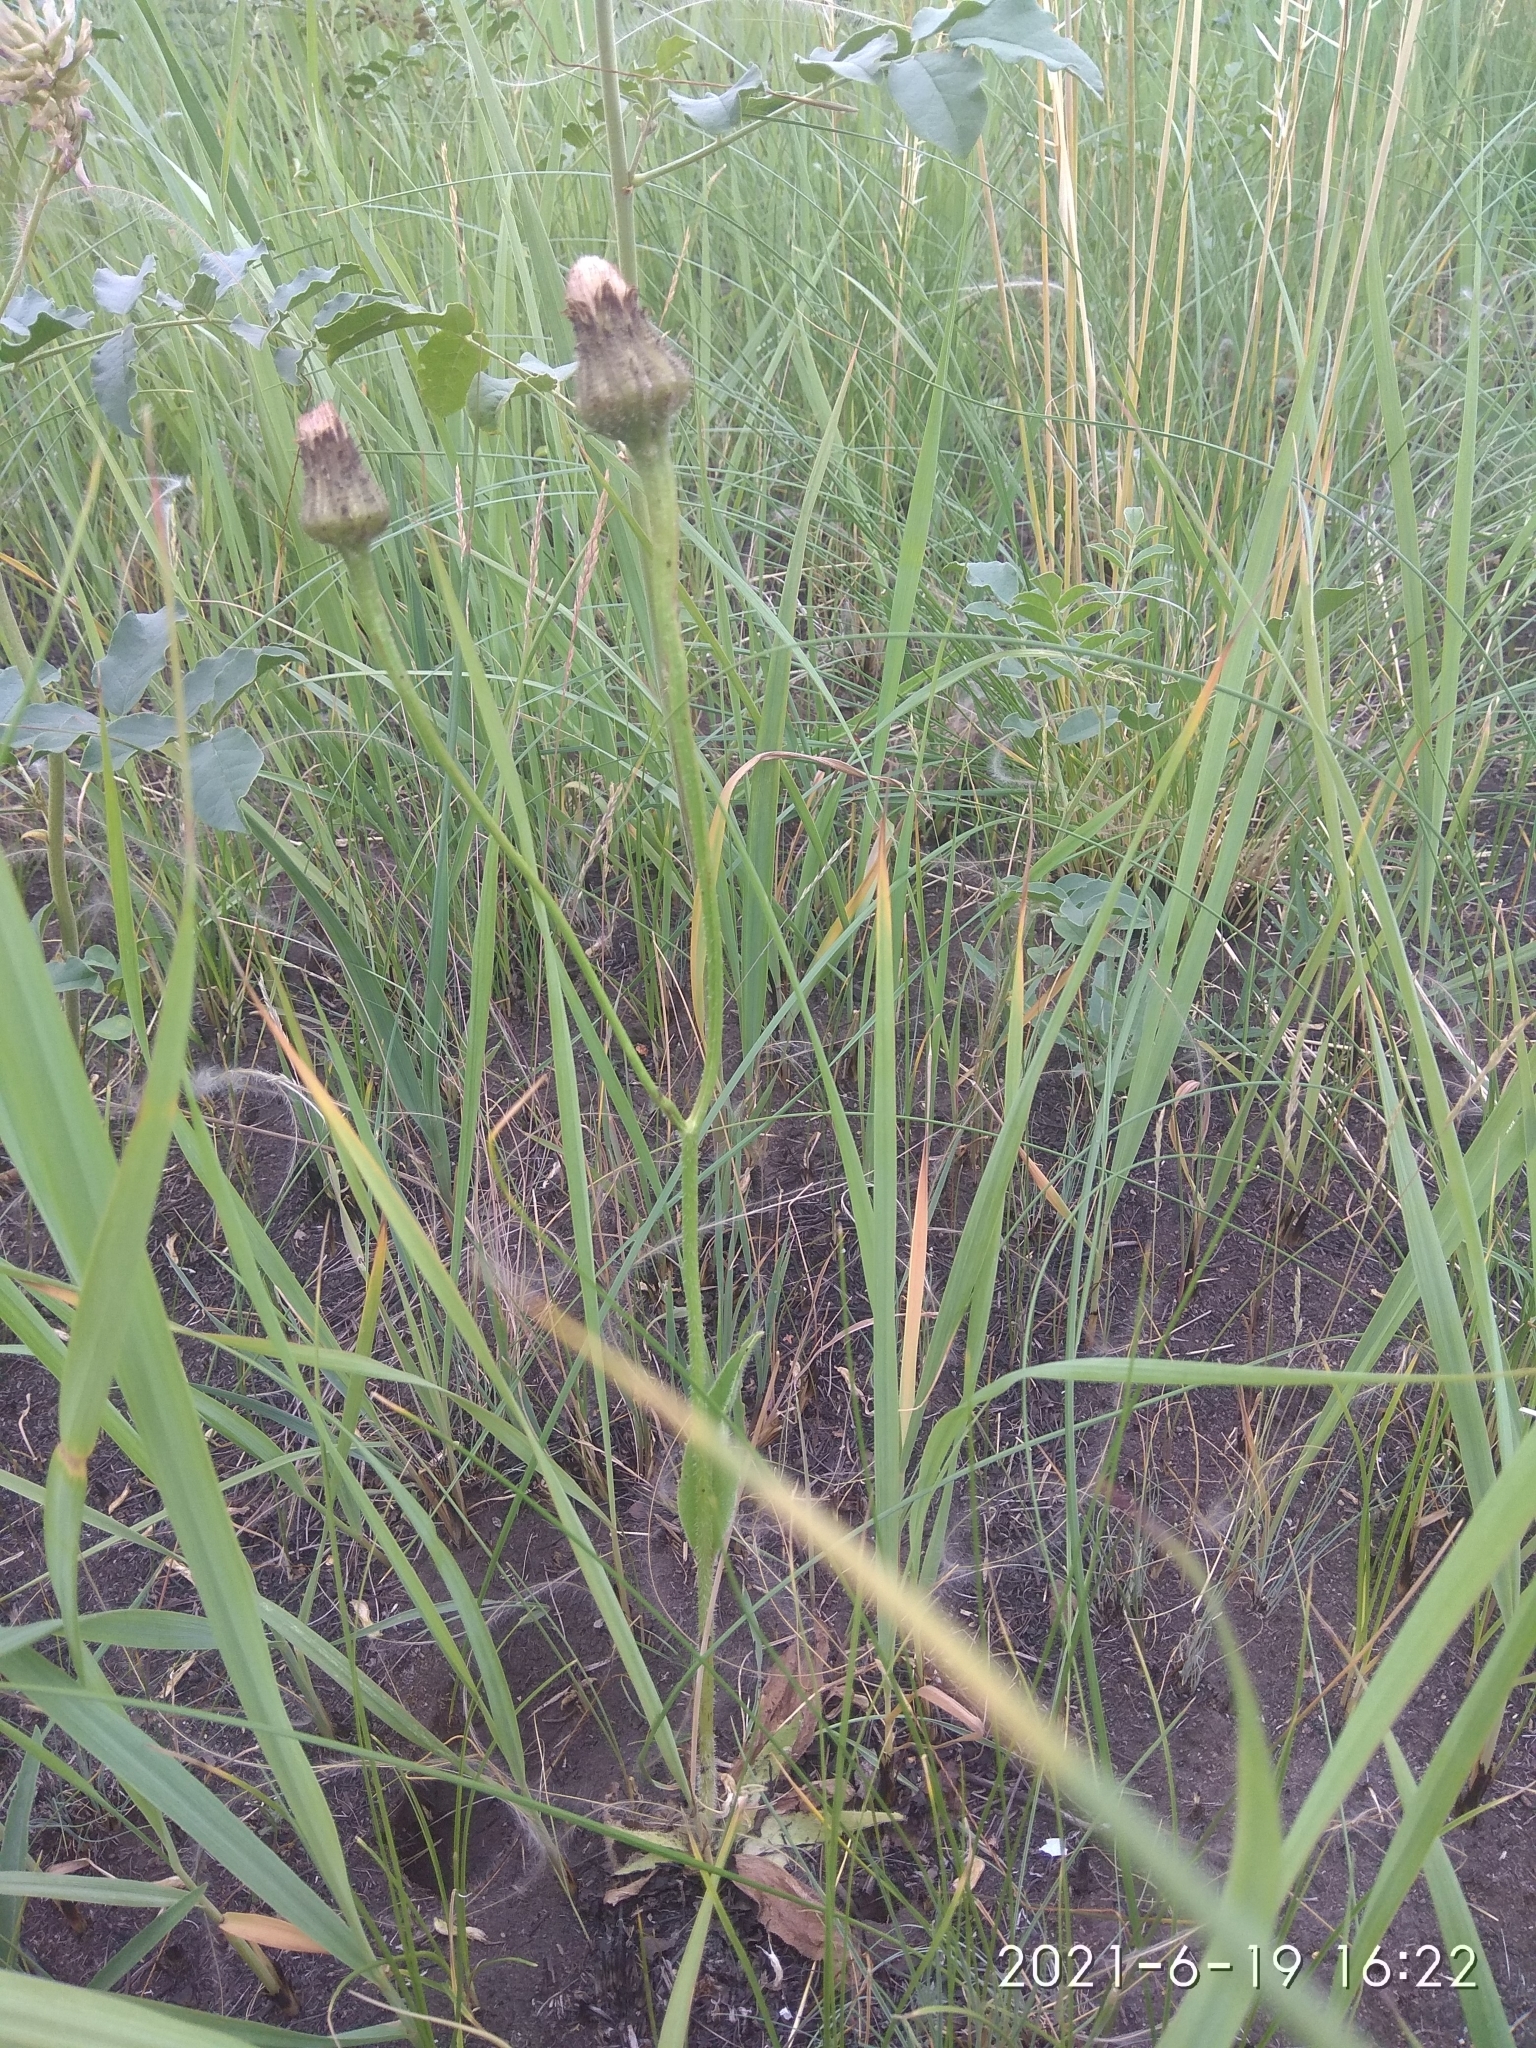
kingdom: Plantae
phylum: Tracheophyta
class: Magnoliopsida
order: Asterales
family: Asteraceae
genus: Trommsdorffia
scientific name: Trommsdorffia maculata
